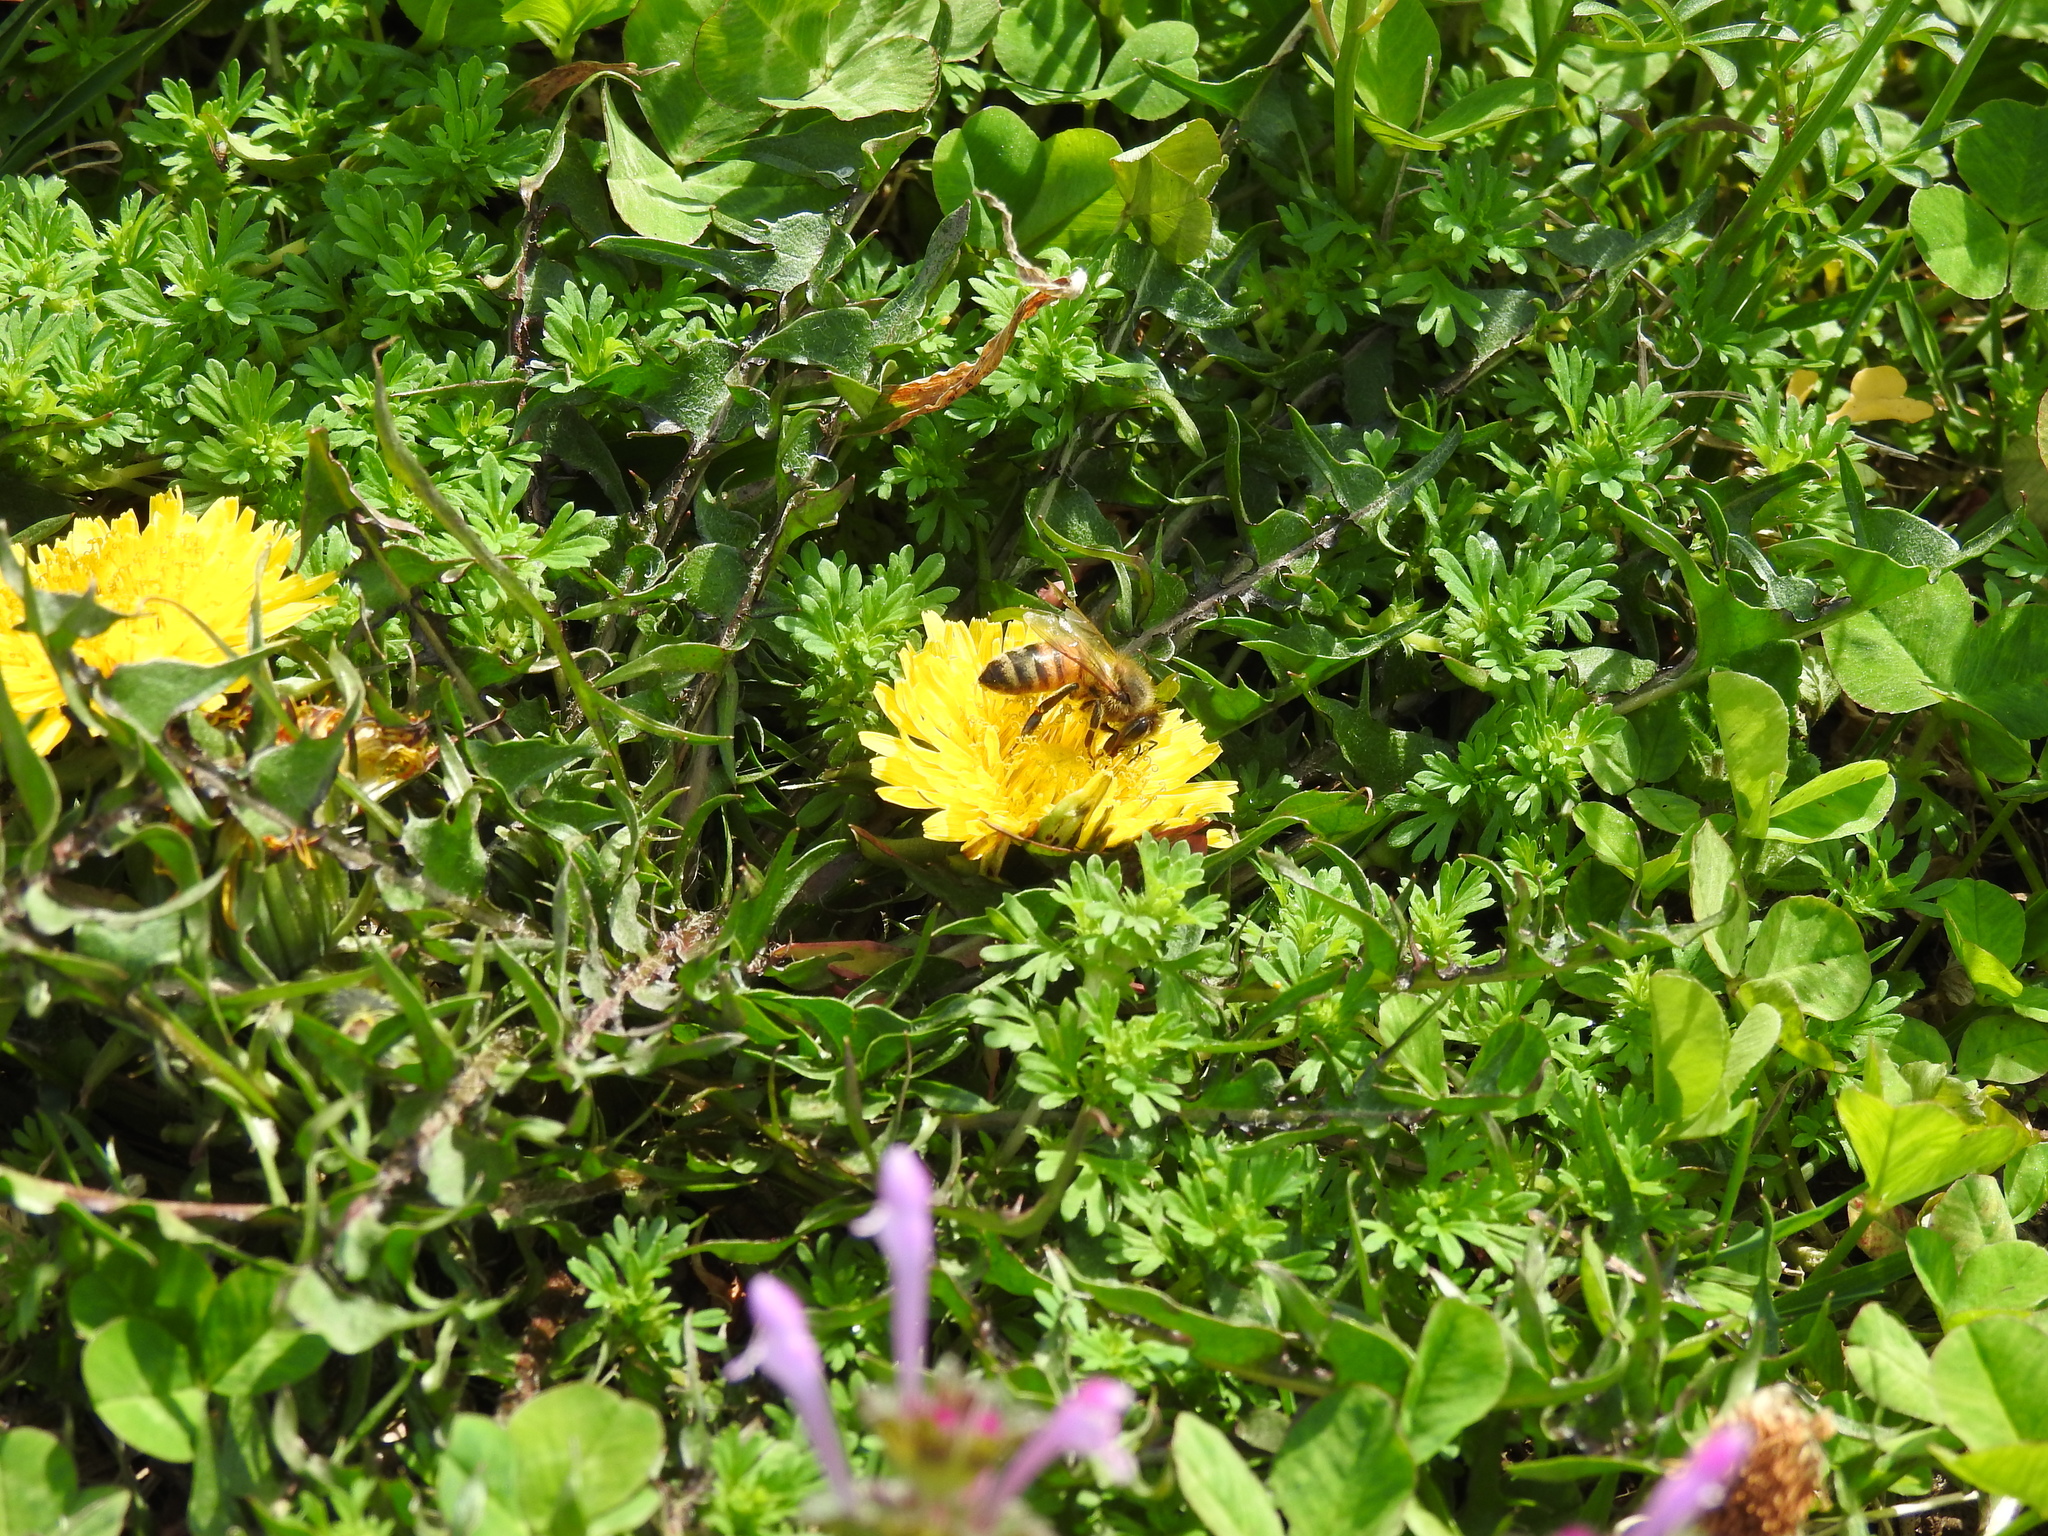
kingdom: Animalia
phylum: Arthropoda
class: Insecta
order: Hymenoptera
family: Apidae
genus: Apis
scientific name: Apis mellifera
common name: Honey bee
